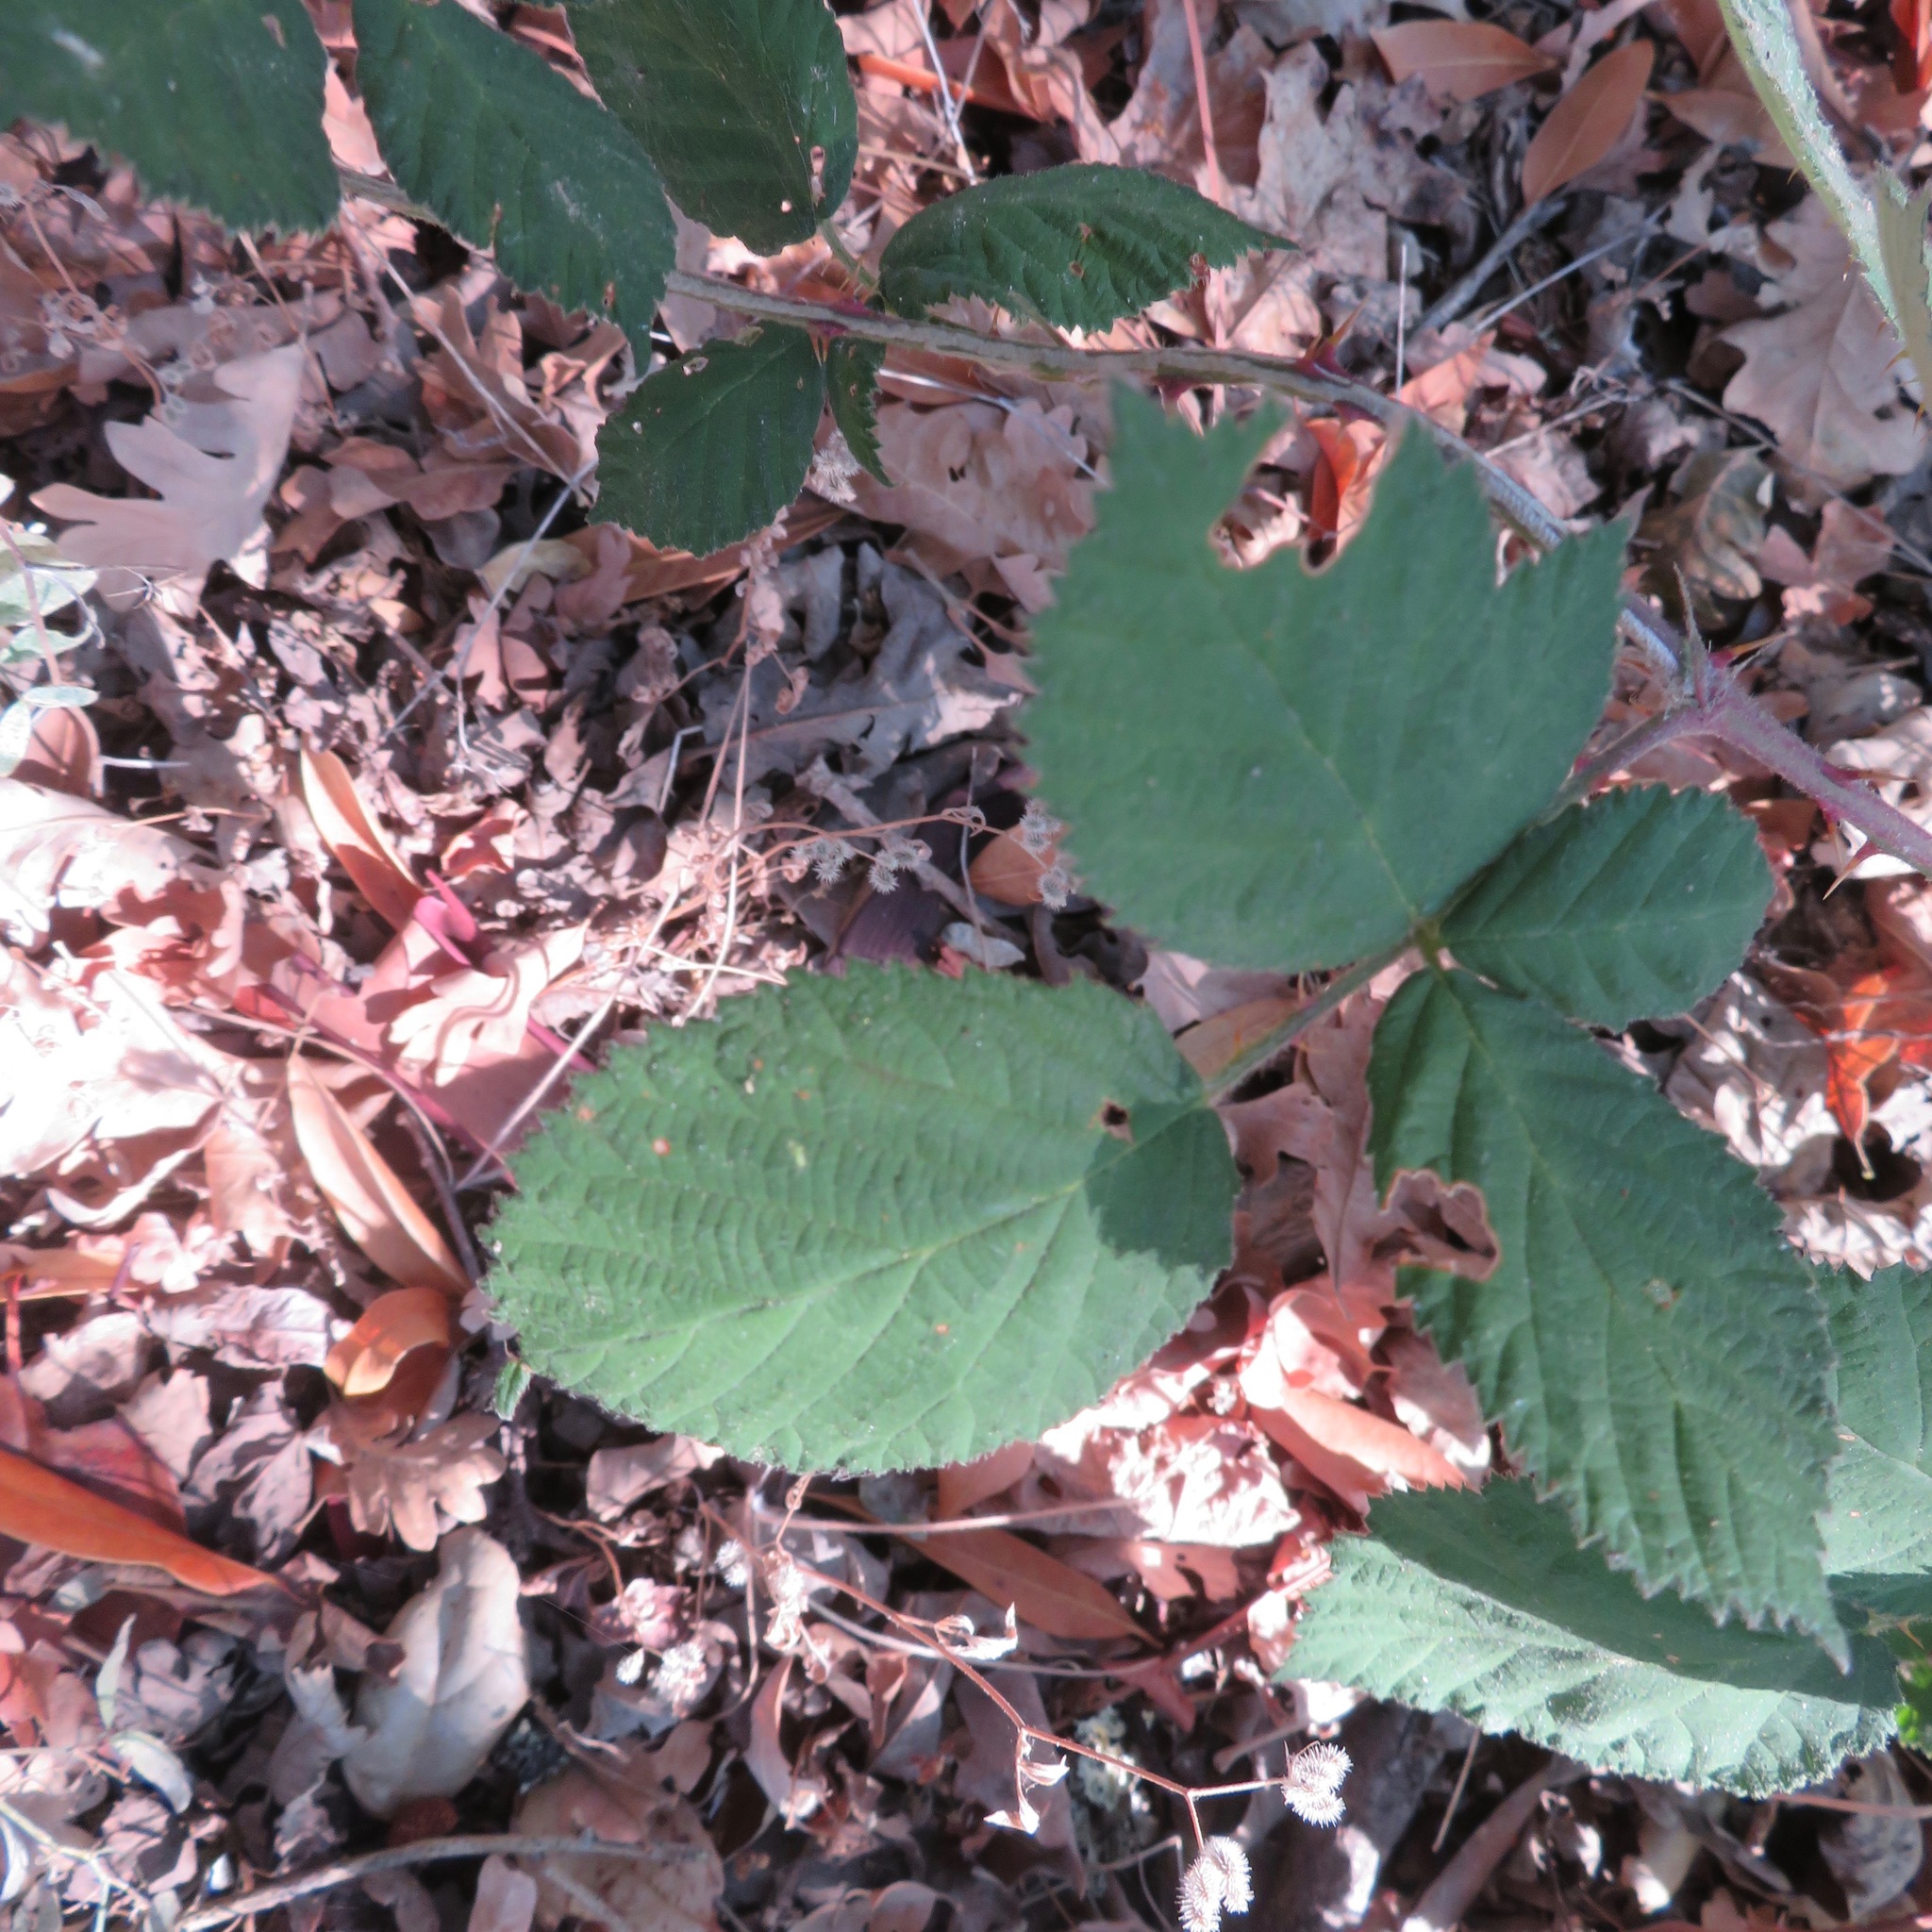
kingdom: Plantae
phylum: Tracheophyta
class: Magnoliopsida
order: Rosales
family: Rosaceae
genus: Rubus
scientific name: Rubus armeniacus
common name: Himalayan blackberry
